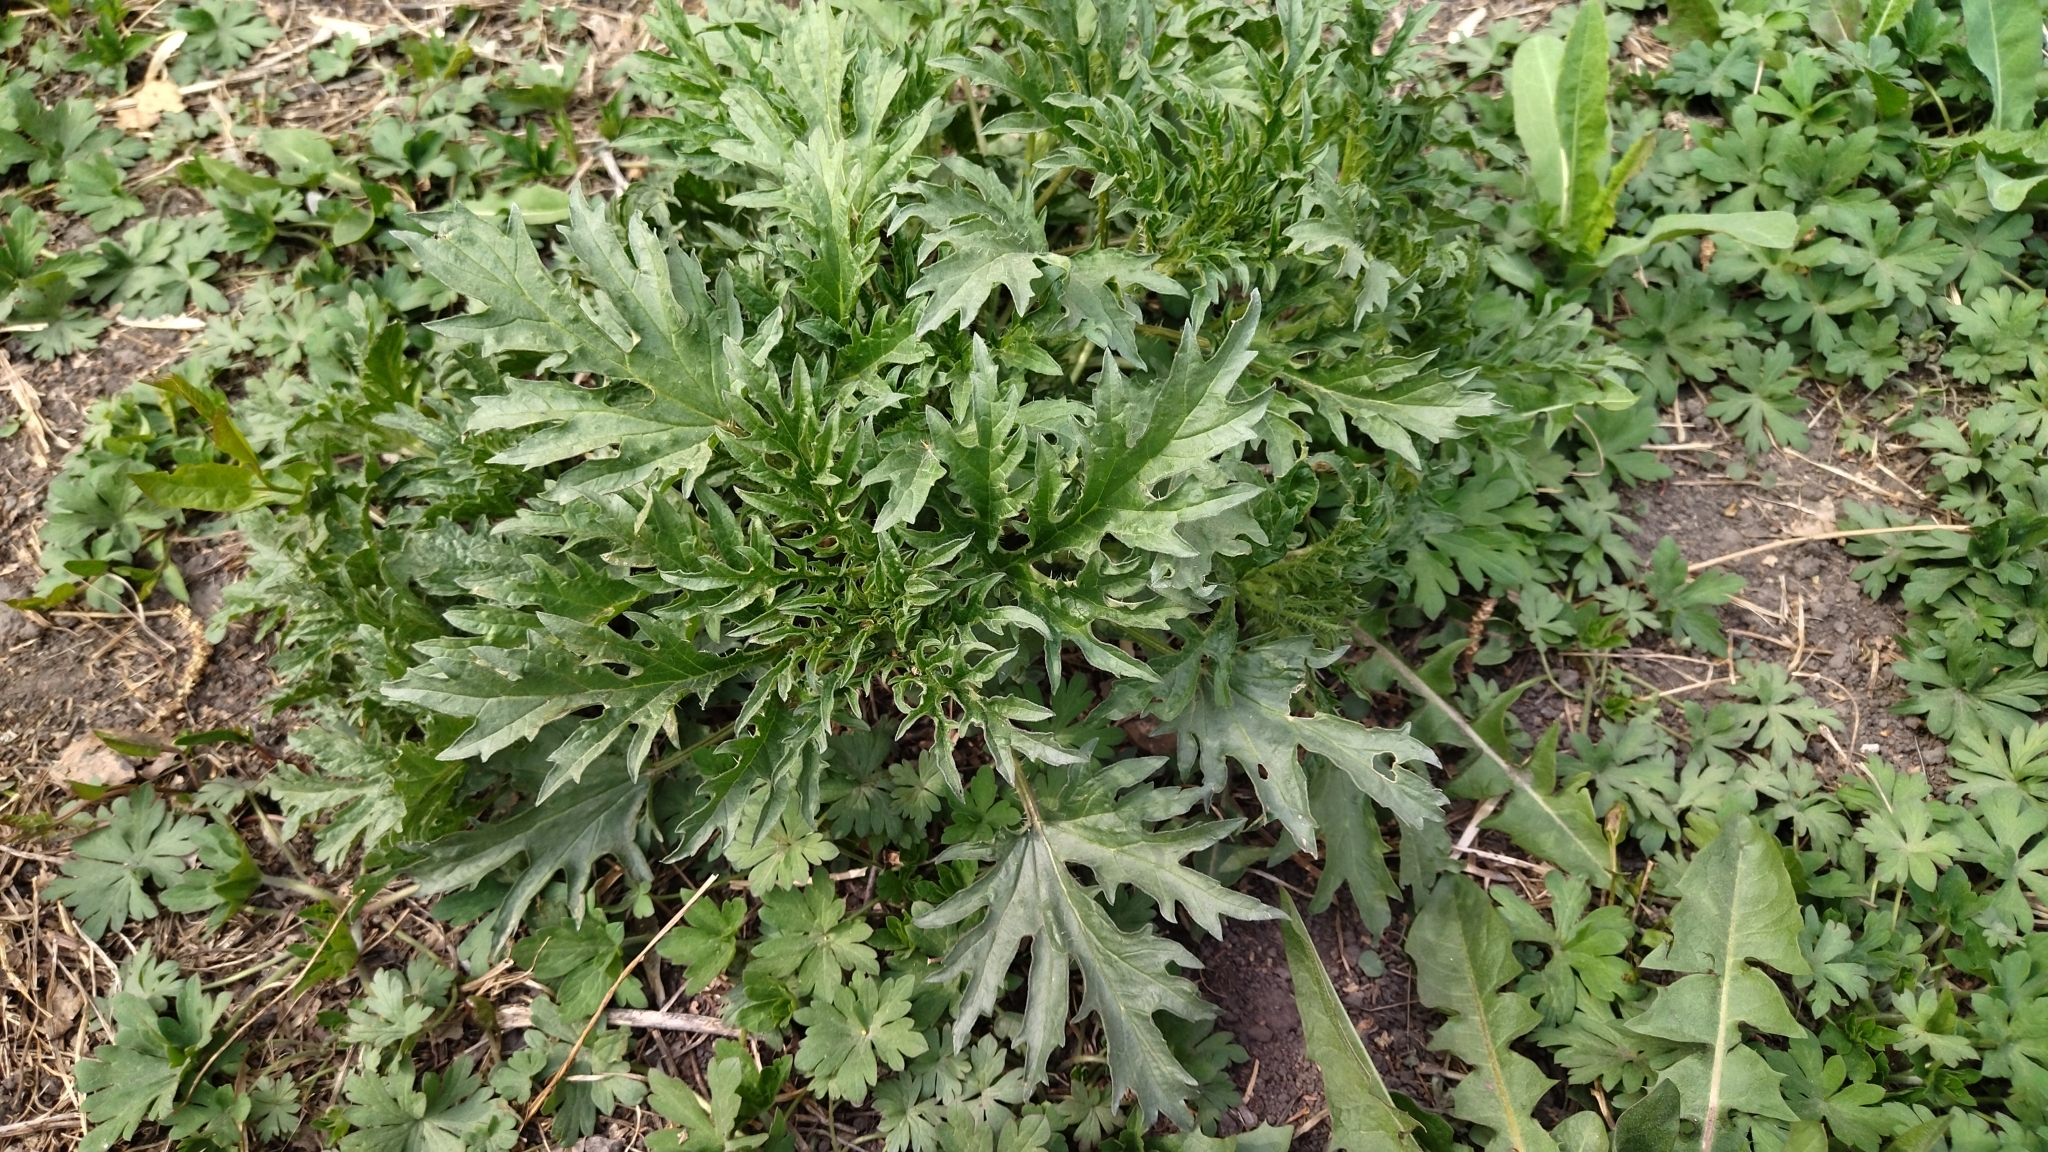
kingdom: Plantae
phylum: Tracheophyta
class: Magnoliopsida
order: Rosales
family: Urticaceae
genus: Urtica
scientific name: Urtica cannabina
